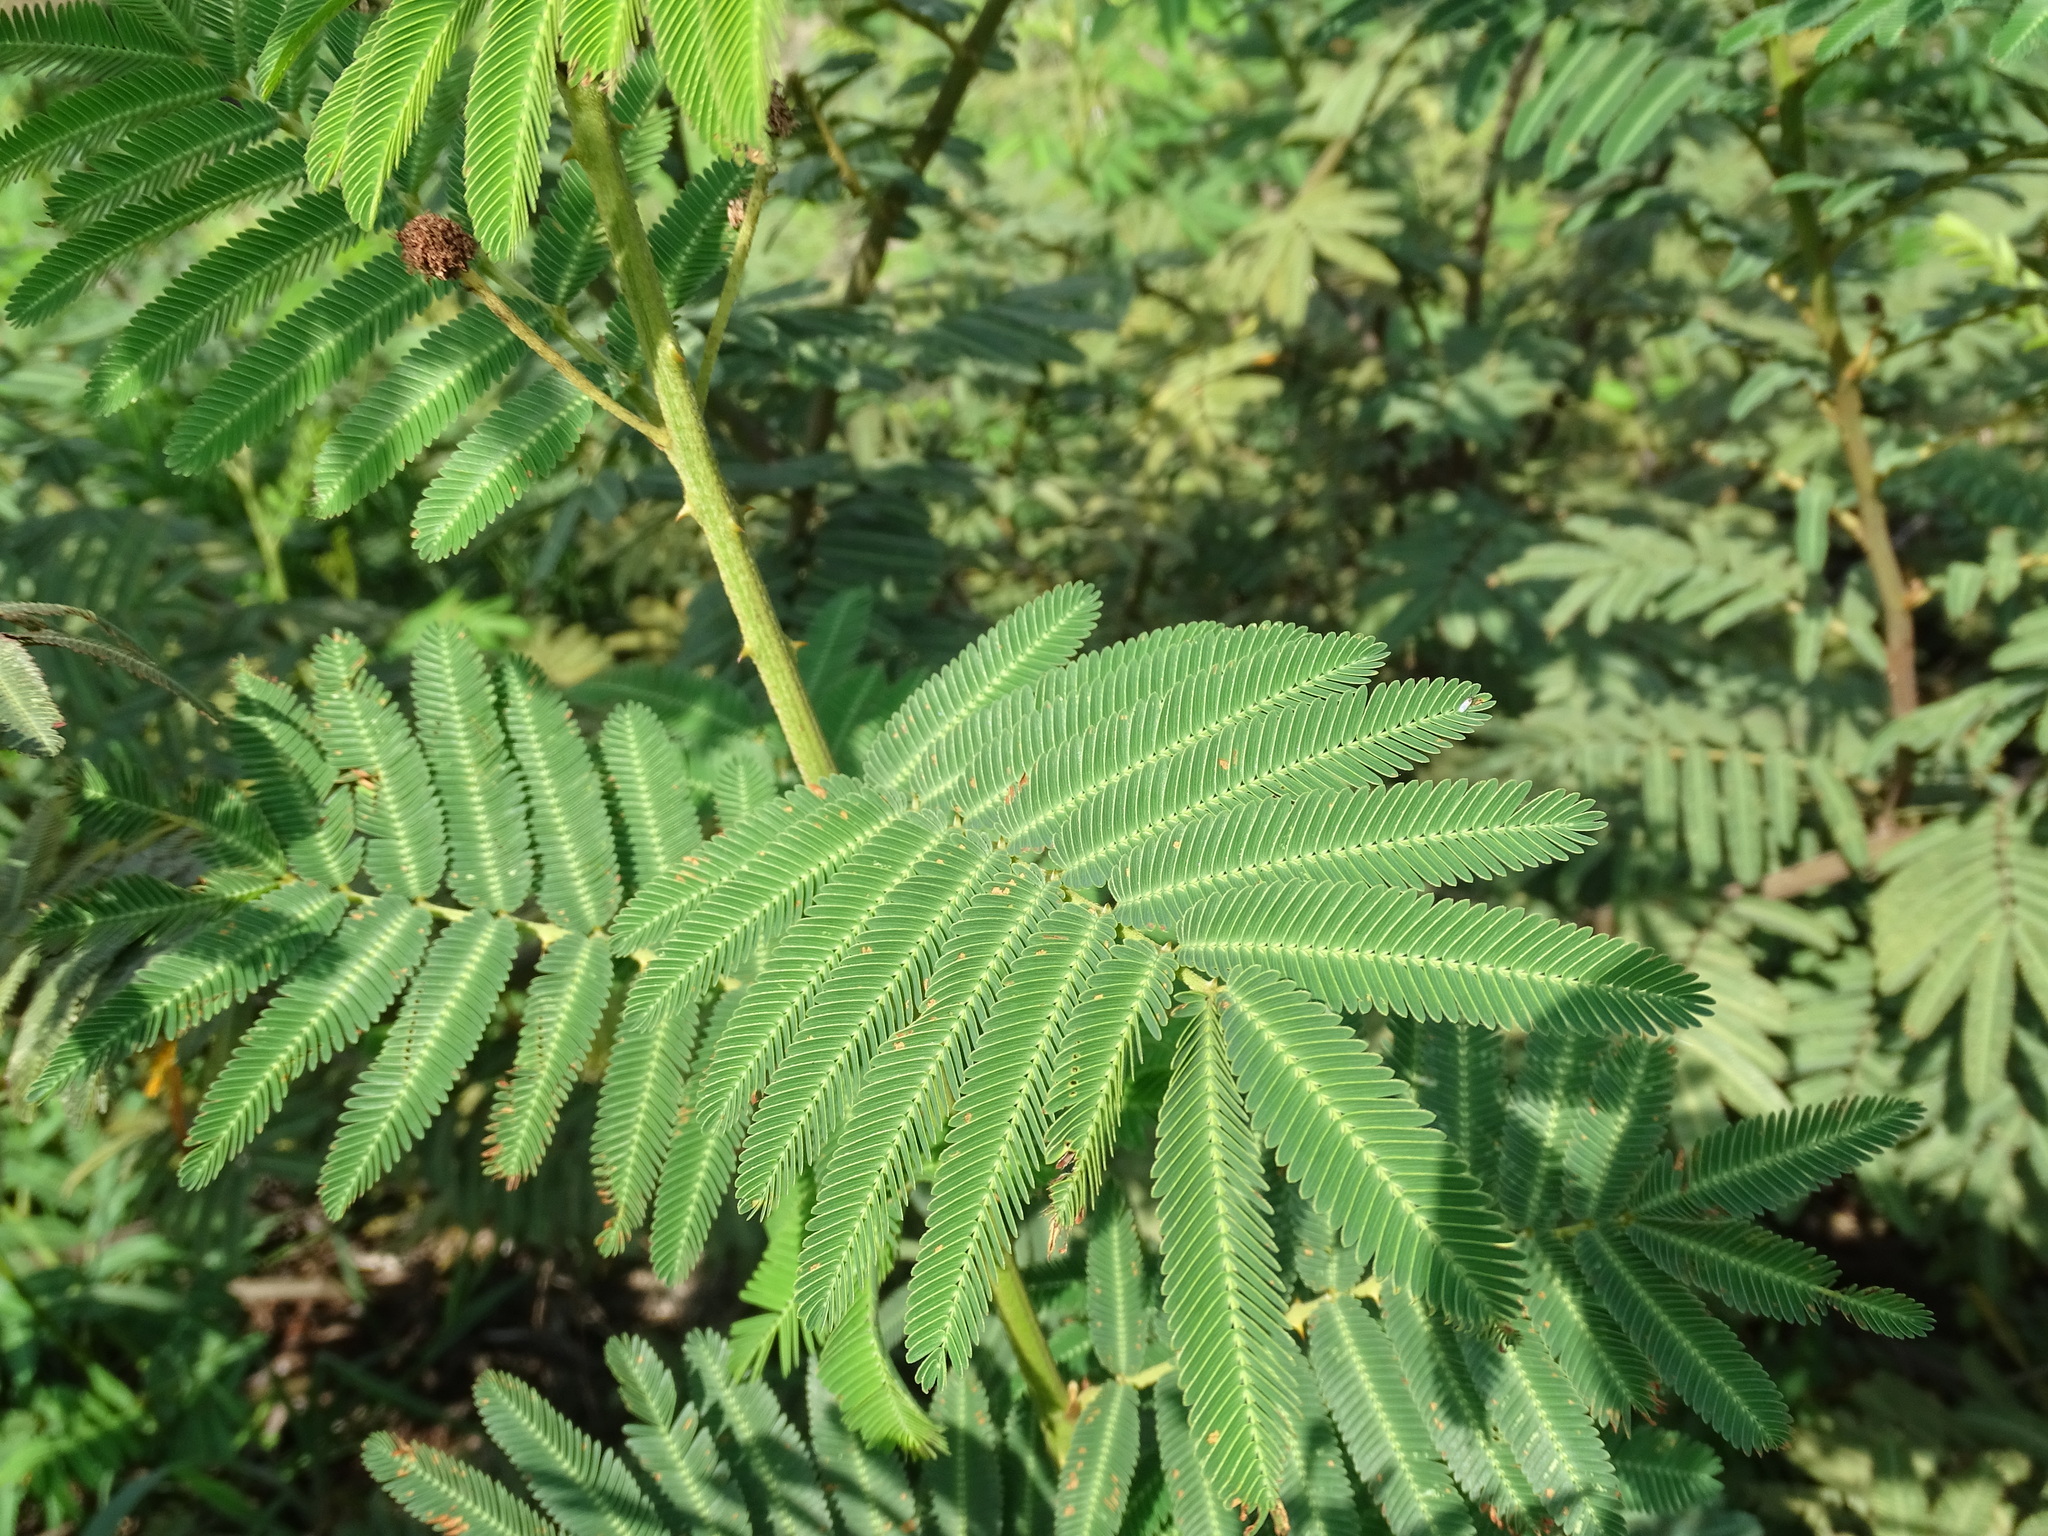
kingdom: Plantae
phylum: Tracheophyta
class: Magnoliopsida
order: Fabales
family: Fabaceae
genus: Mimosa
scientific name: Mimosa pigra
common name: Black mimosa
